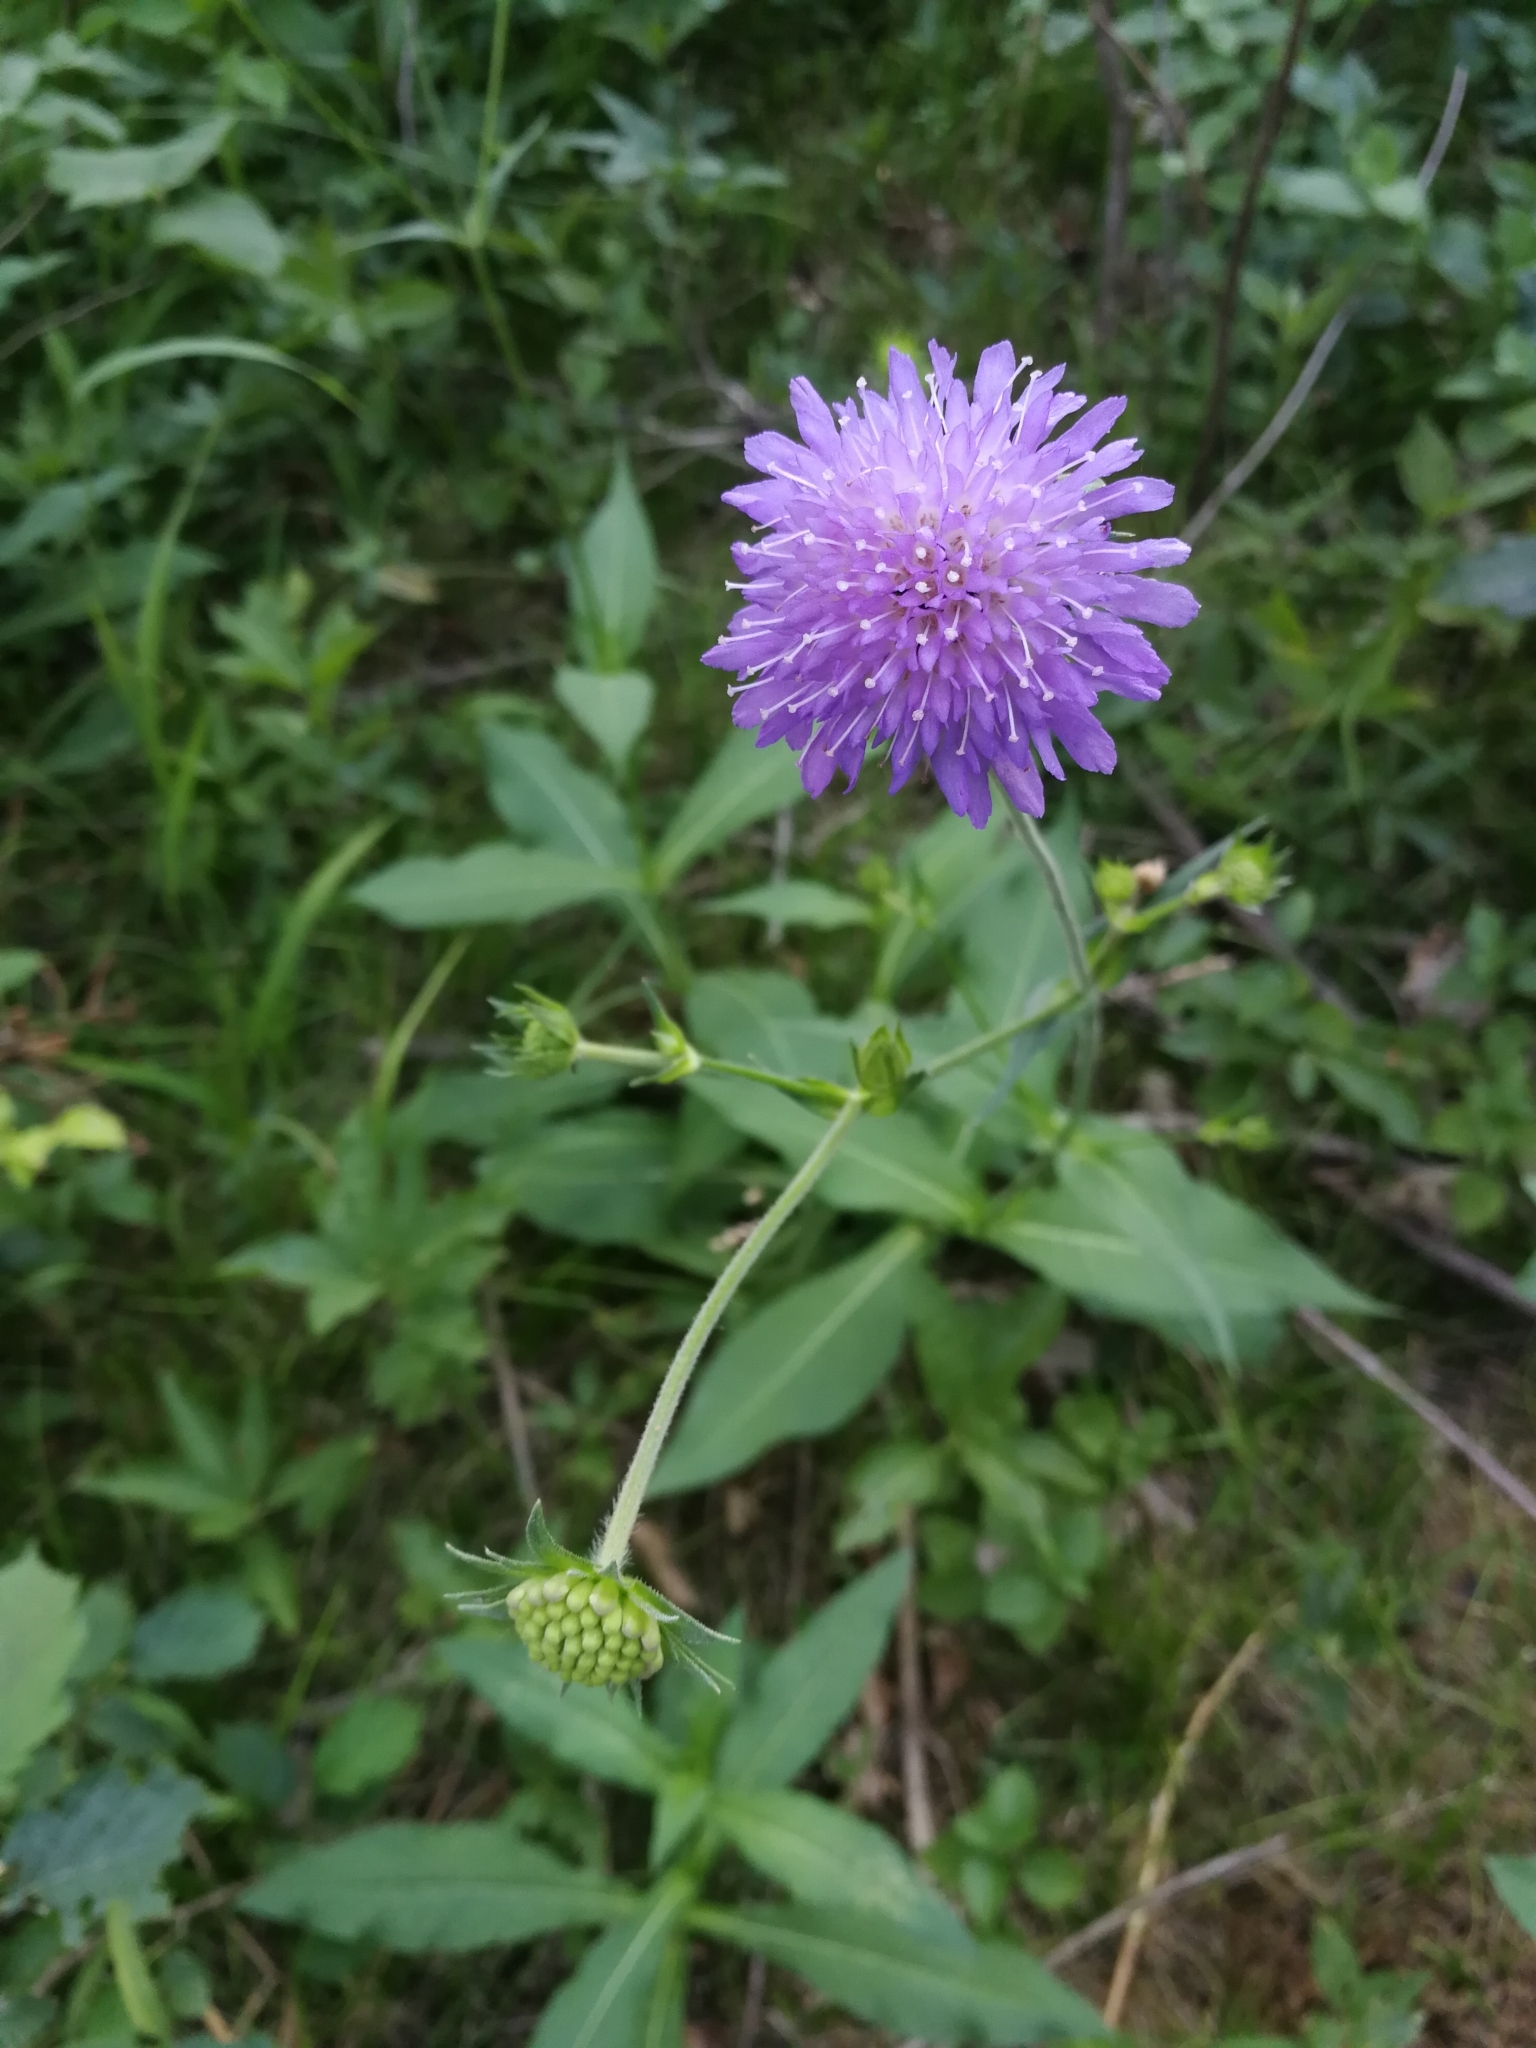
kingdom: Plantae
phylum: Tracheophyta
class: Magnoliopsida
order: Dipsacales
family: Caprifoliaceae
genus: Knautia
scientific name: Knautia dipsacifolia
